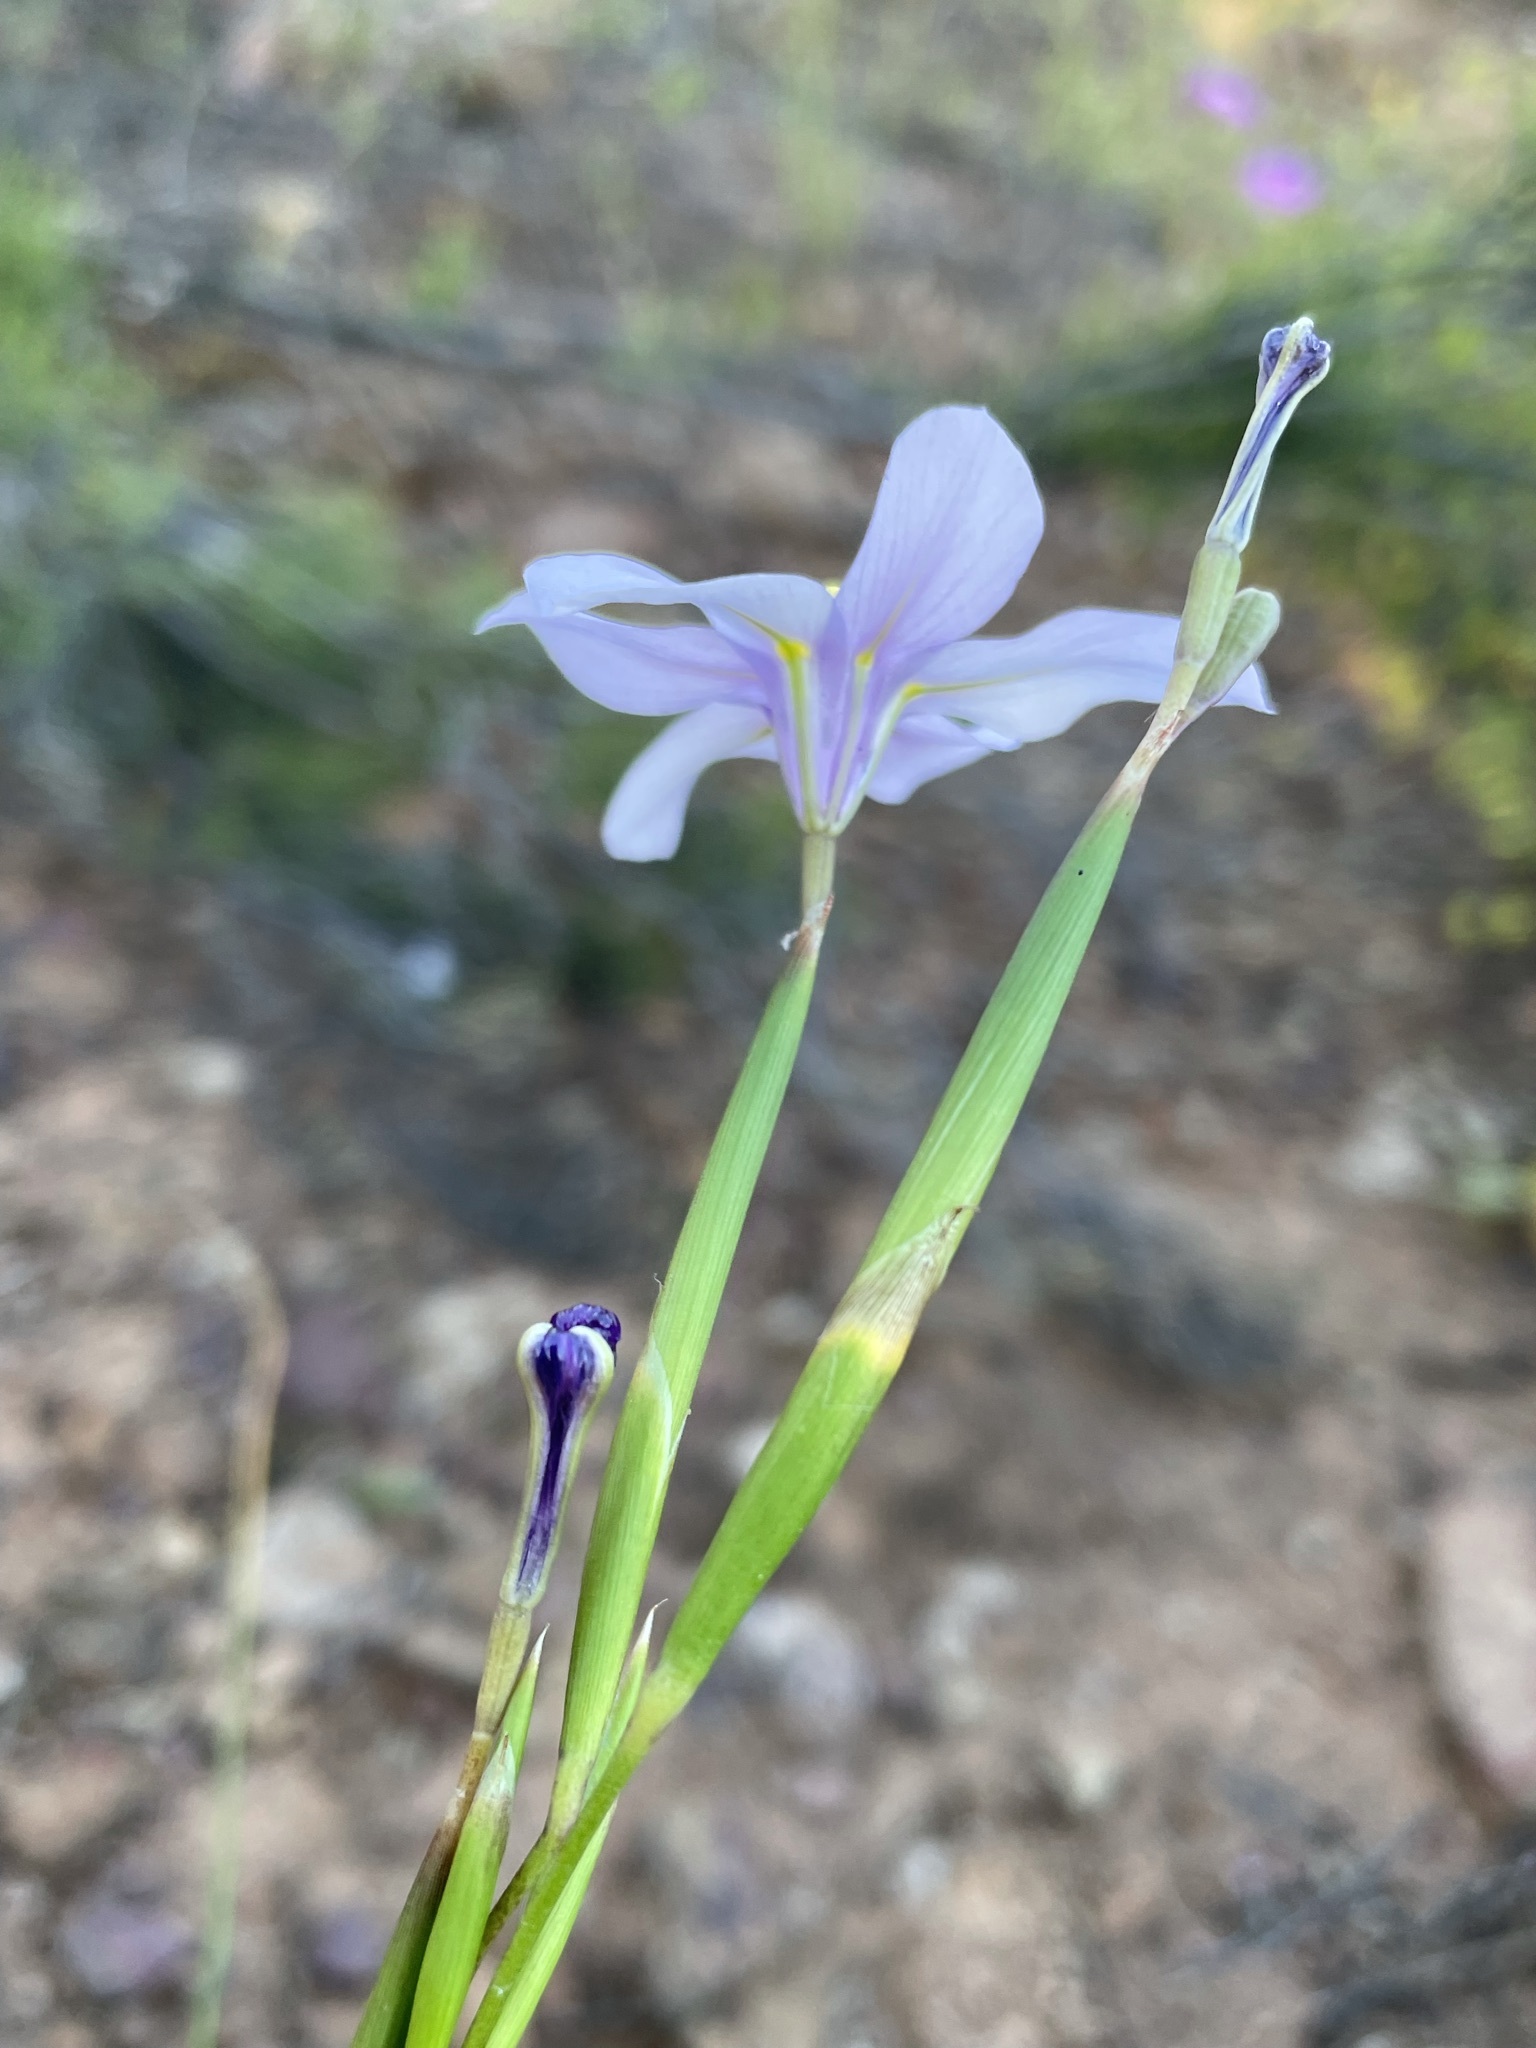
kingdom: Plantae
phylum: Tracheophyta
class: Liliopsida
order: Asparagales
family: Iridaceae
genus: Moraea
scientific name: Moraea polyanthos
